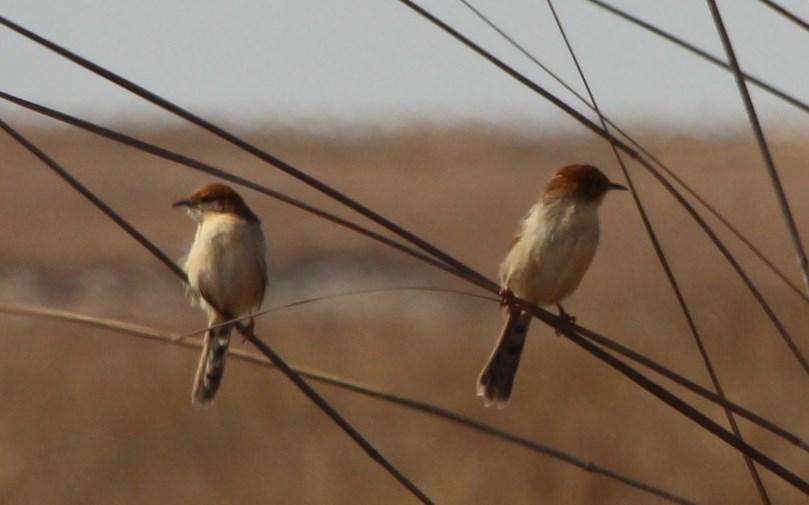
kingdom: Animalia
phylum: Chordata
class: Aves
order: Passeriformes
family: Cisticolidae
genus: Cisticola
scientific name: Cisticola tinniens
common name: Levaillant's cisticola
